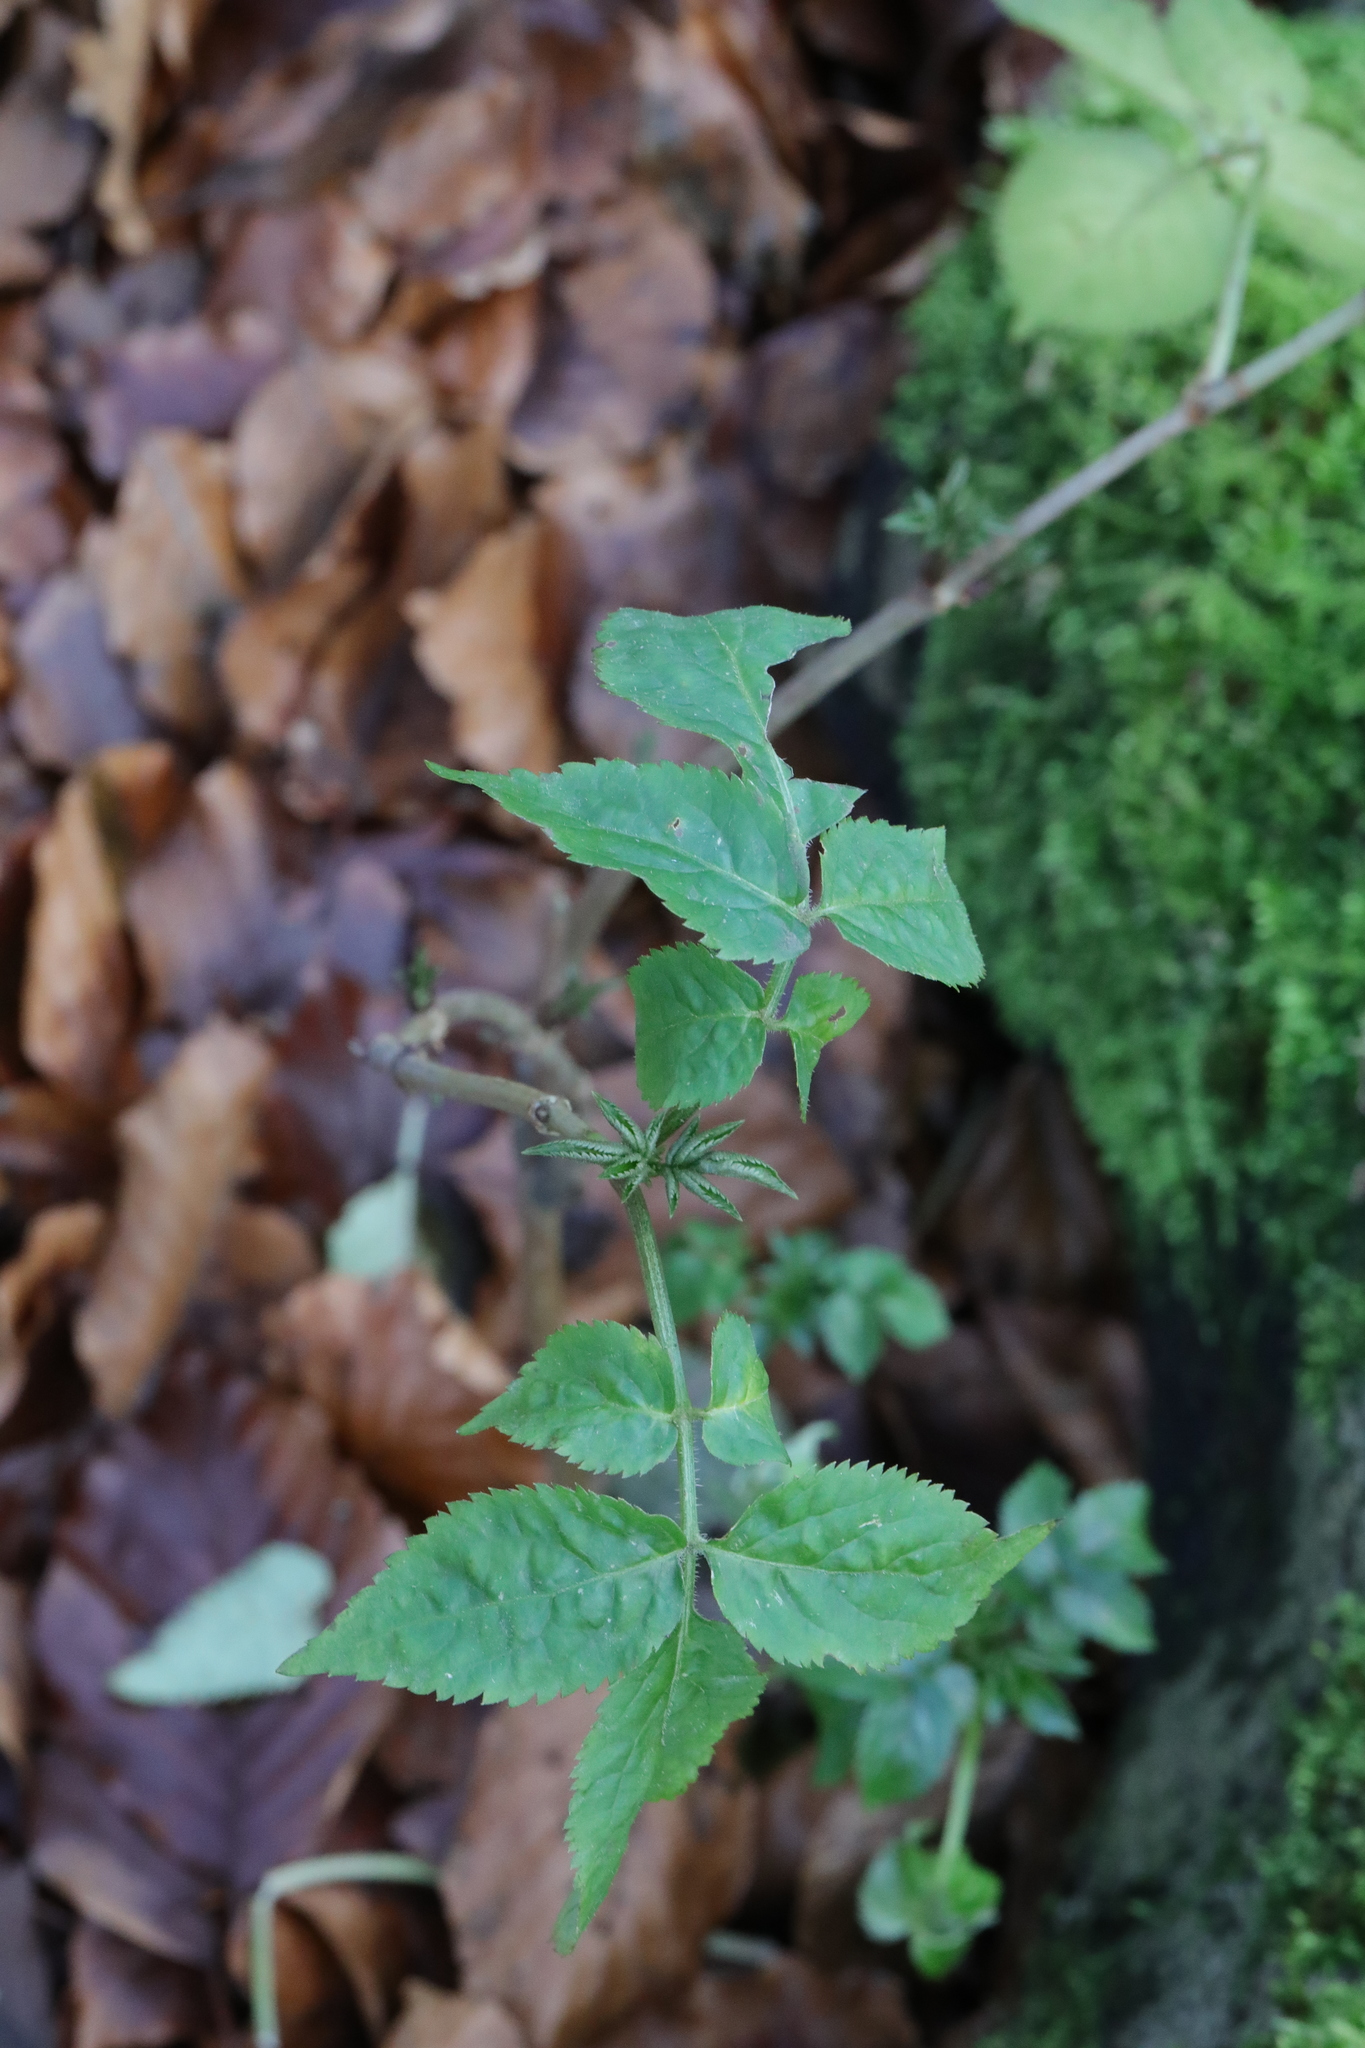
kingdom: Plantae
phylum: Tracheophyta
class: Magnoliopsida
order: Dipsacales
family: Viburnaceae
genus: Sambucus
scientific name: Sambucus nigra
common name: Elder
